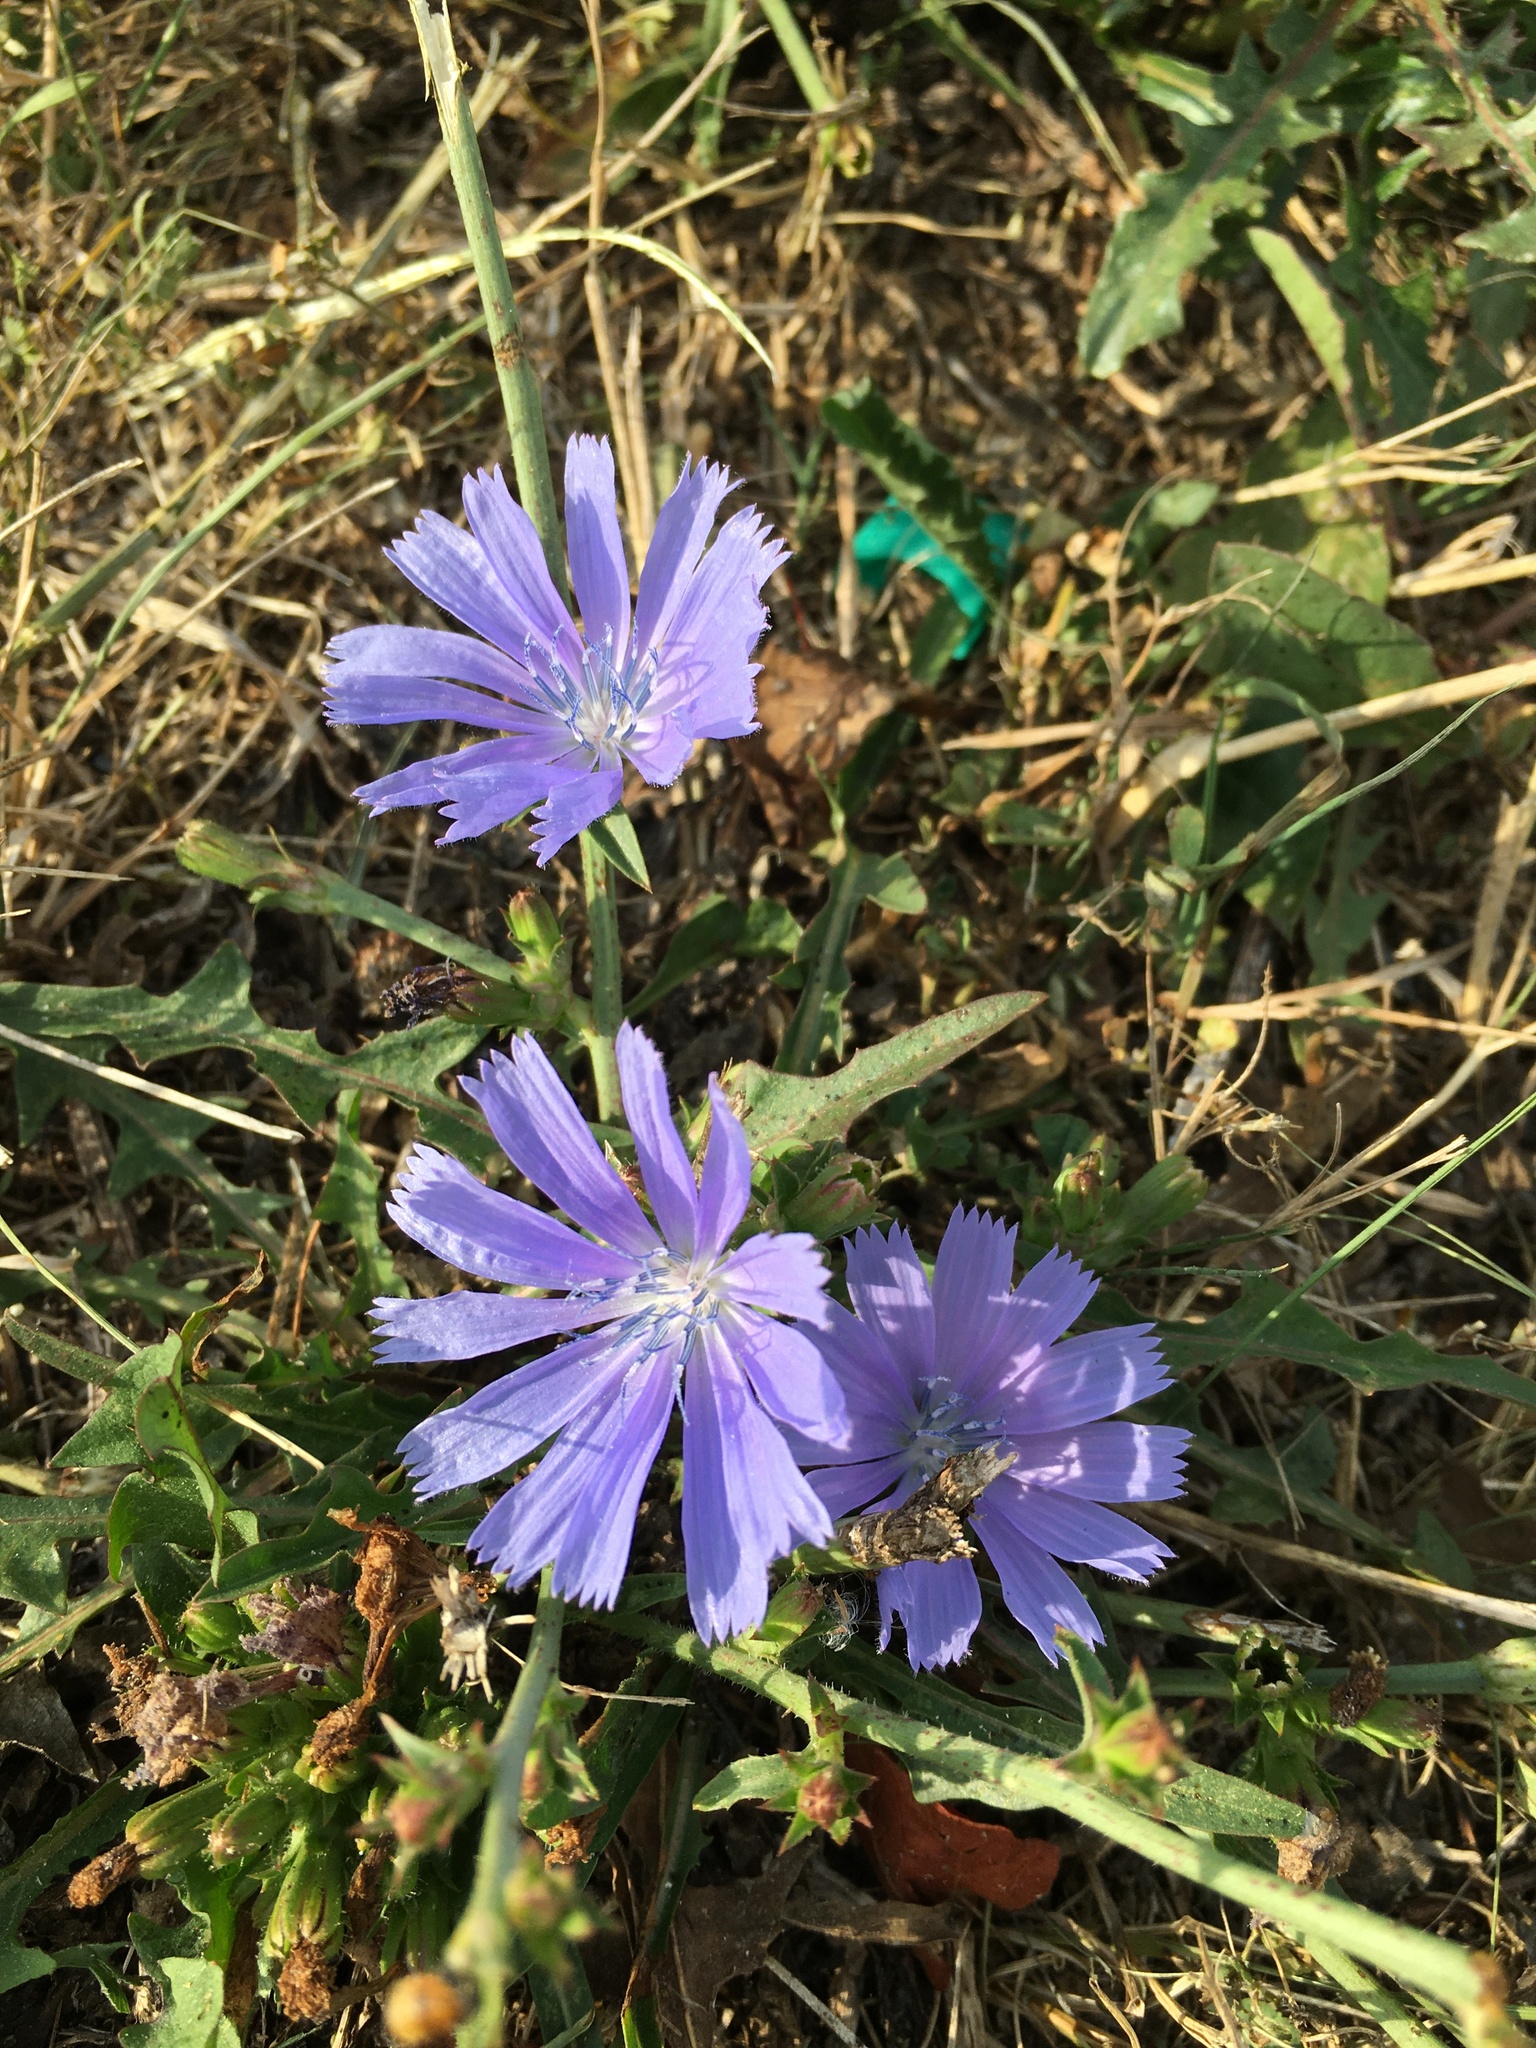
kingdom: Plantae
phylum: Tracheophyta
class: Magnoliopsida
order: Asterales
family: Asteraceae
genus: Cichorium
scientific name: Cichorium intybus
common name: Chicory
